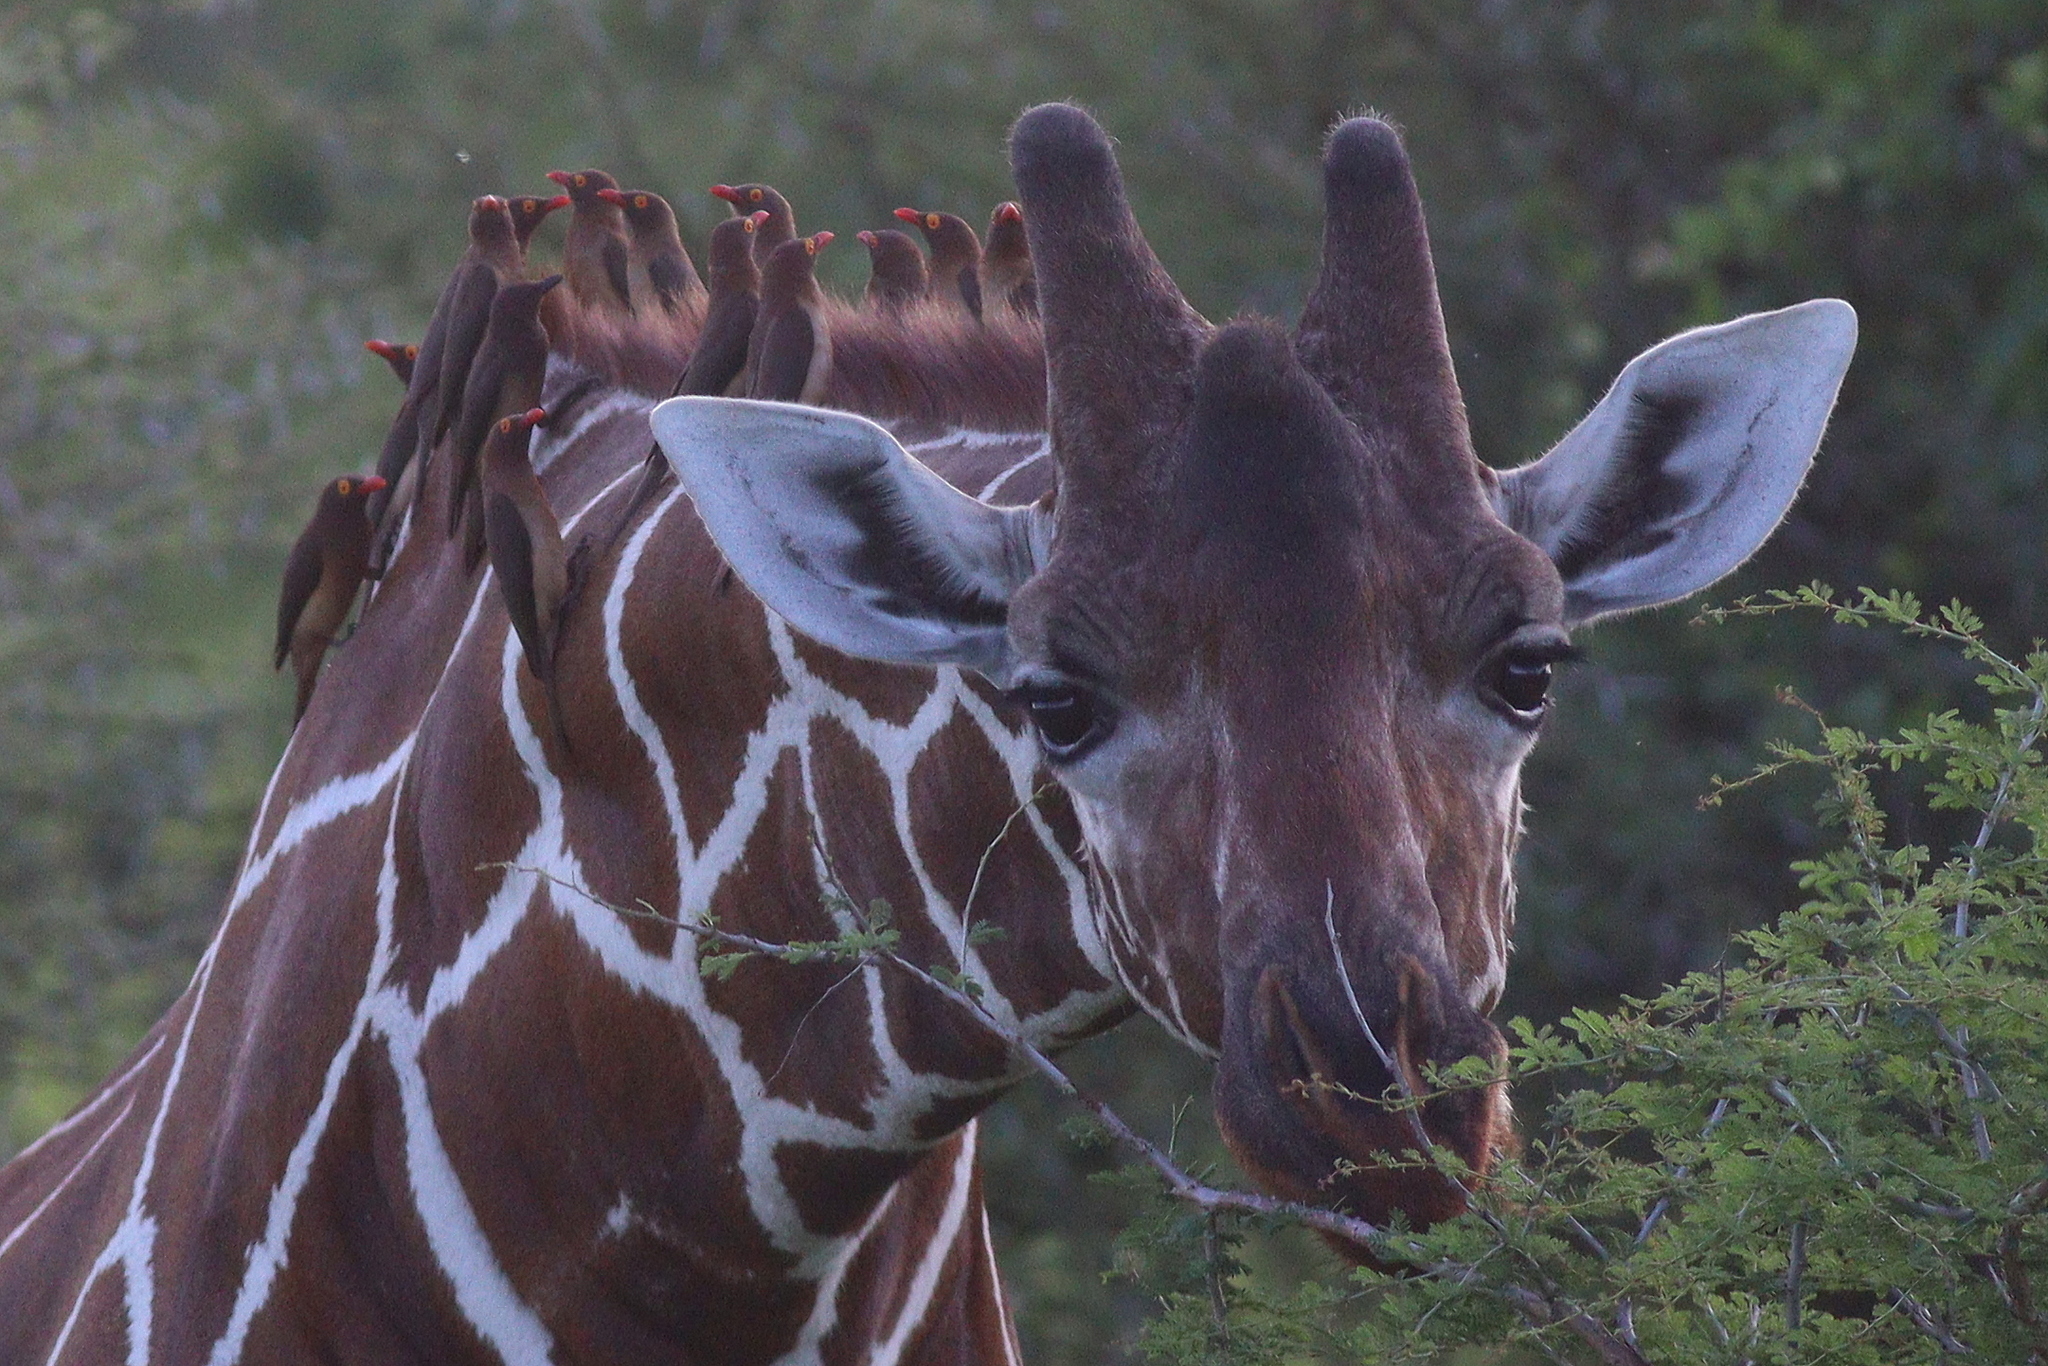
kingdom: Animalia
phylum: Chordata
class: Aves
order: Passeriformes
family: Buphagidae
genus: Buphagus
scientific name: Buphagus erythrorhynchus
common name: Red-billed oxpecker
